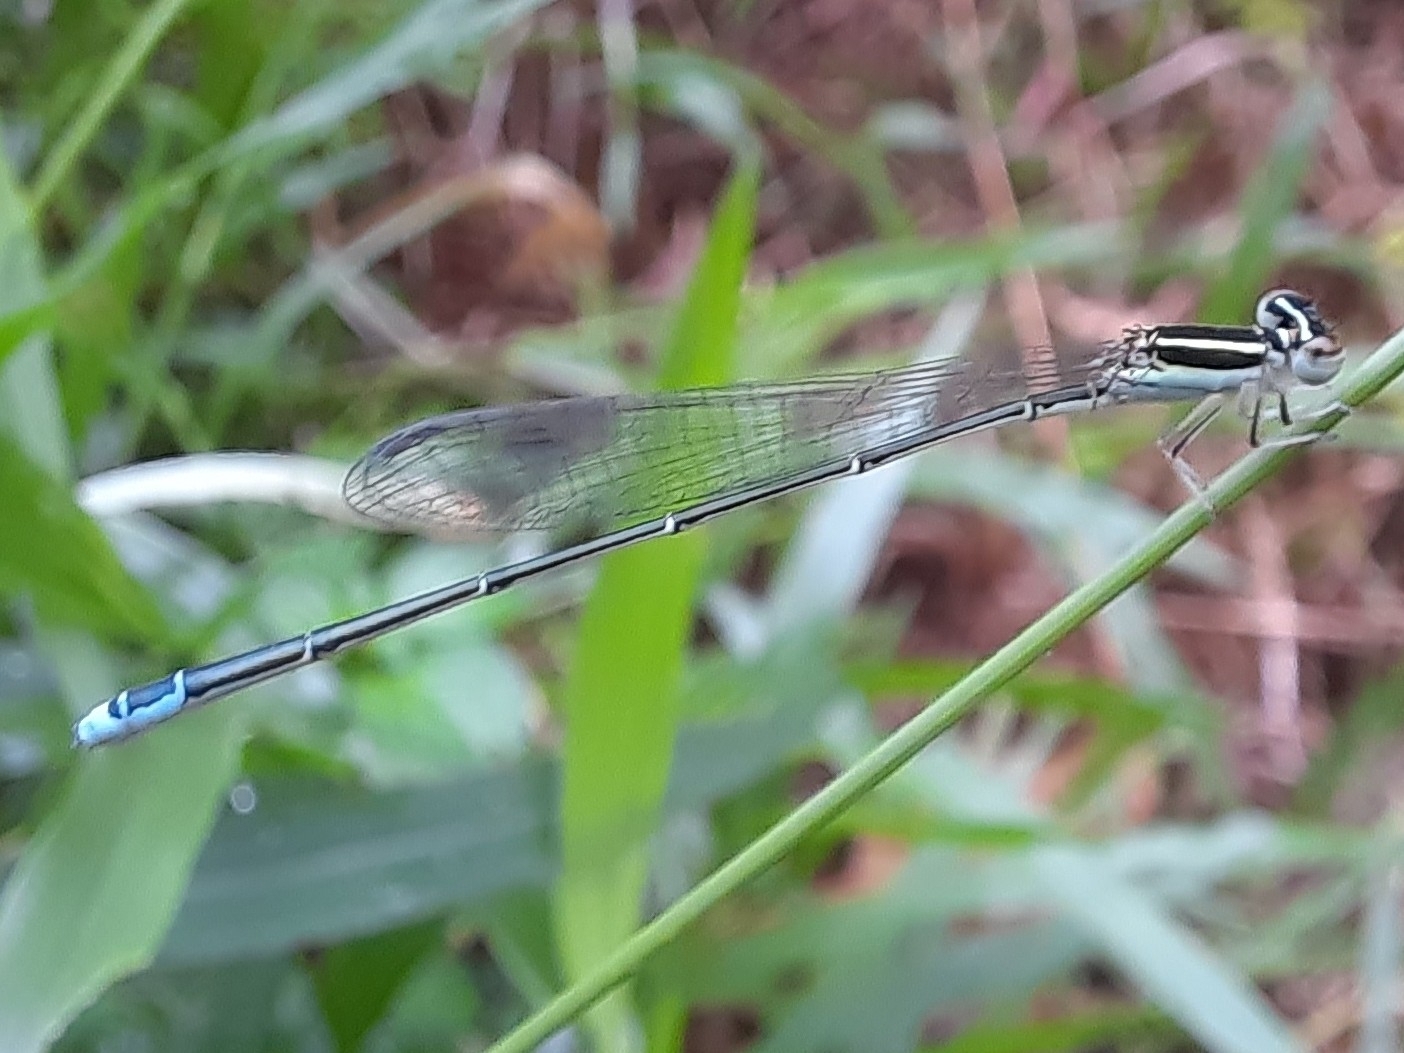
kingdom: Animalia
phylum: Arthropoda
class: Insecta
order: Odonata
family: Coenagrionidae
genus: Aciagrion
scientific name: Aciagrion occidentale
